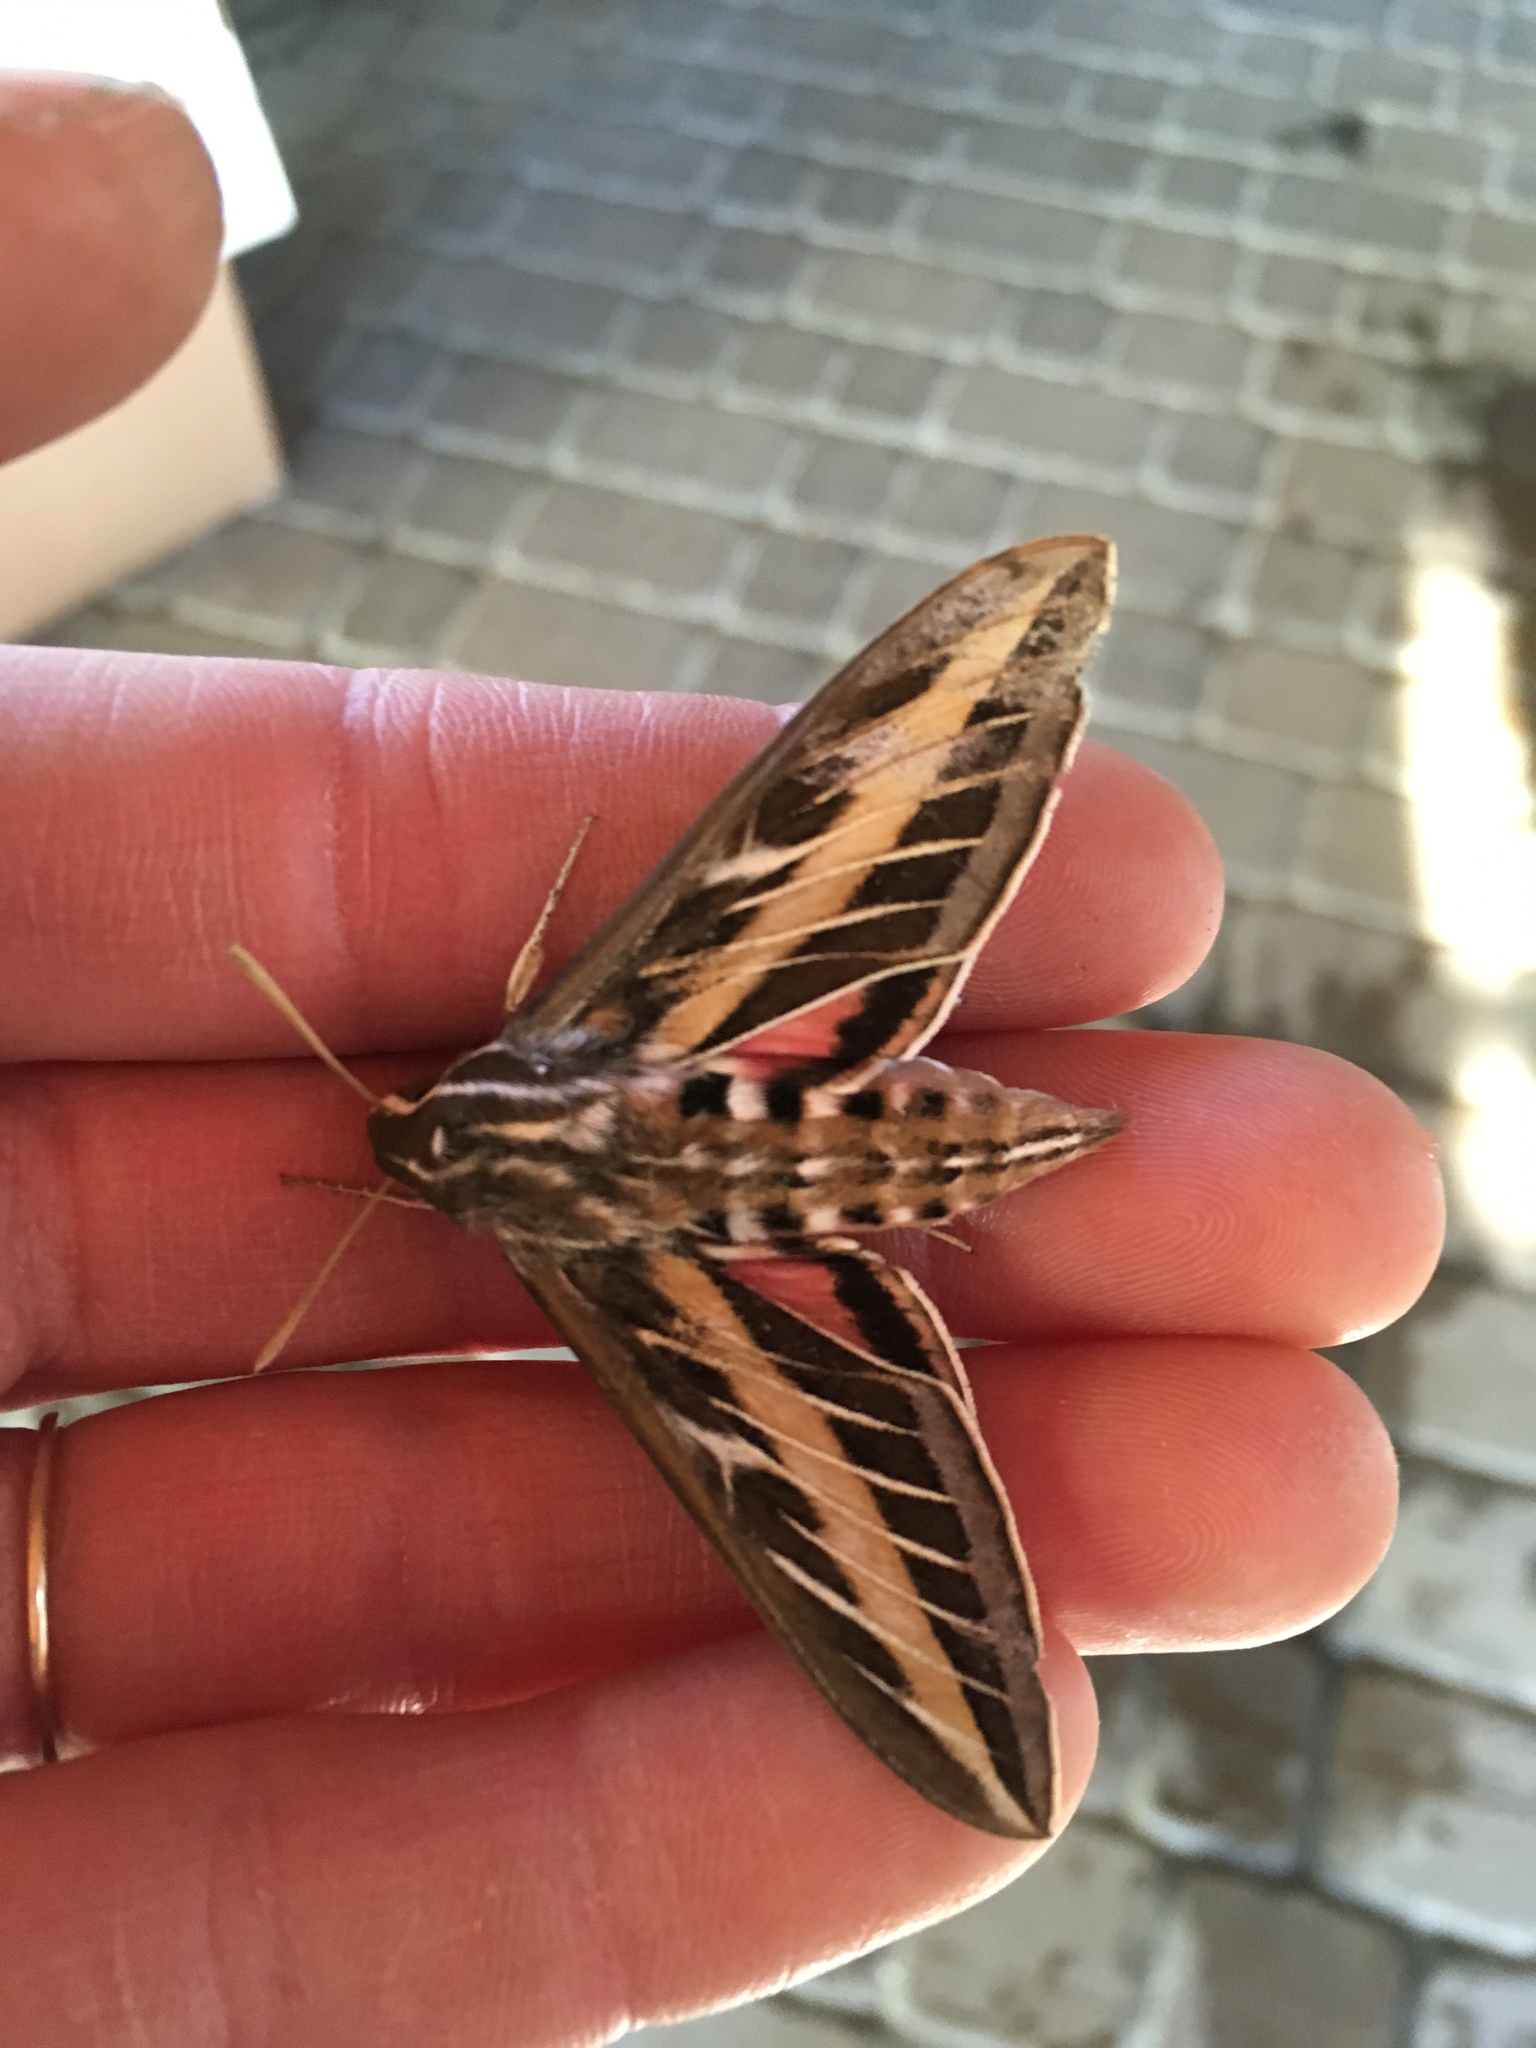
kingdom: Animalia
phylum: Arthropoda
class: Insecta
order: Lepidoptera
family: Sphingidae
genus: Hyles
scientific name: Hyles lineata
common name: White-lined sphinx
